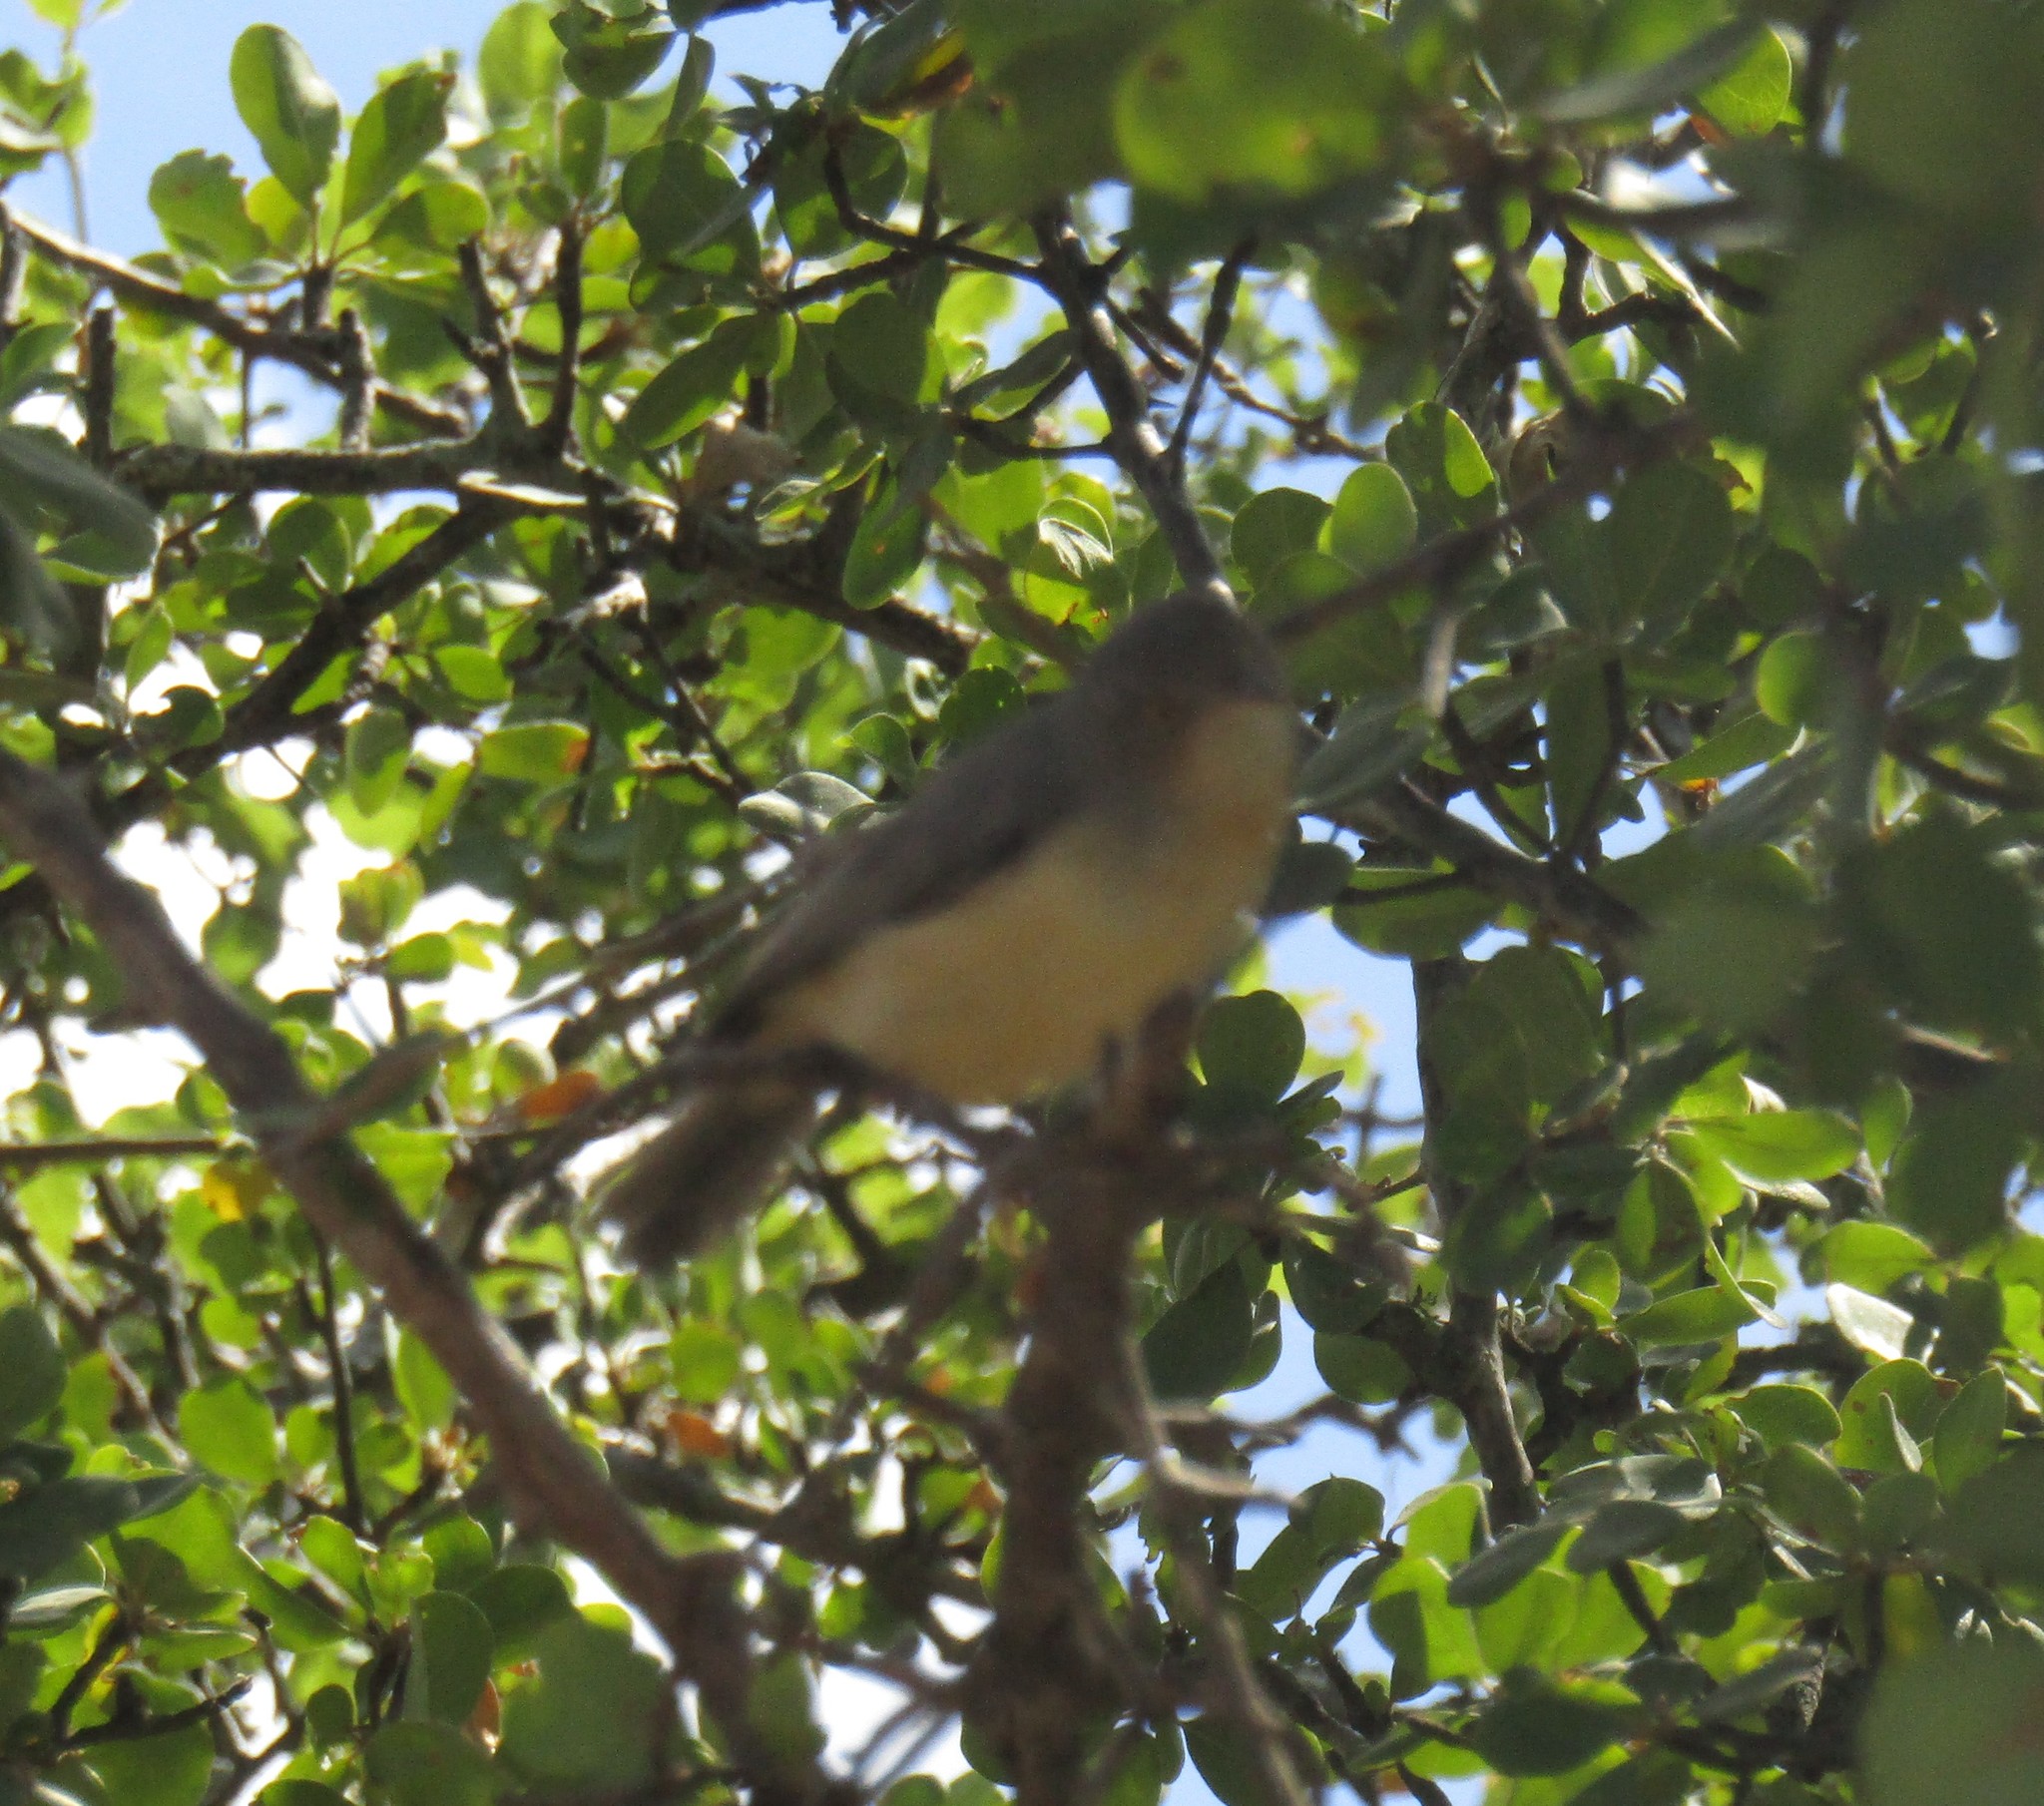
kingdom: Animalia
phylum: Chordata
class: Aves
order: Passeriformes
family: Cisticolidae
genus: Eremomela
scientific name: Eremomela usticollis
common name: Burnt-neck eremomela
